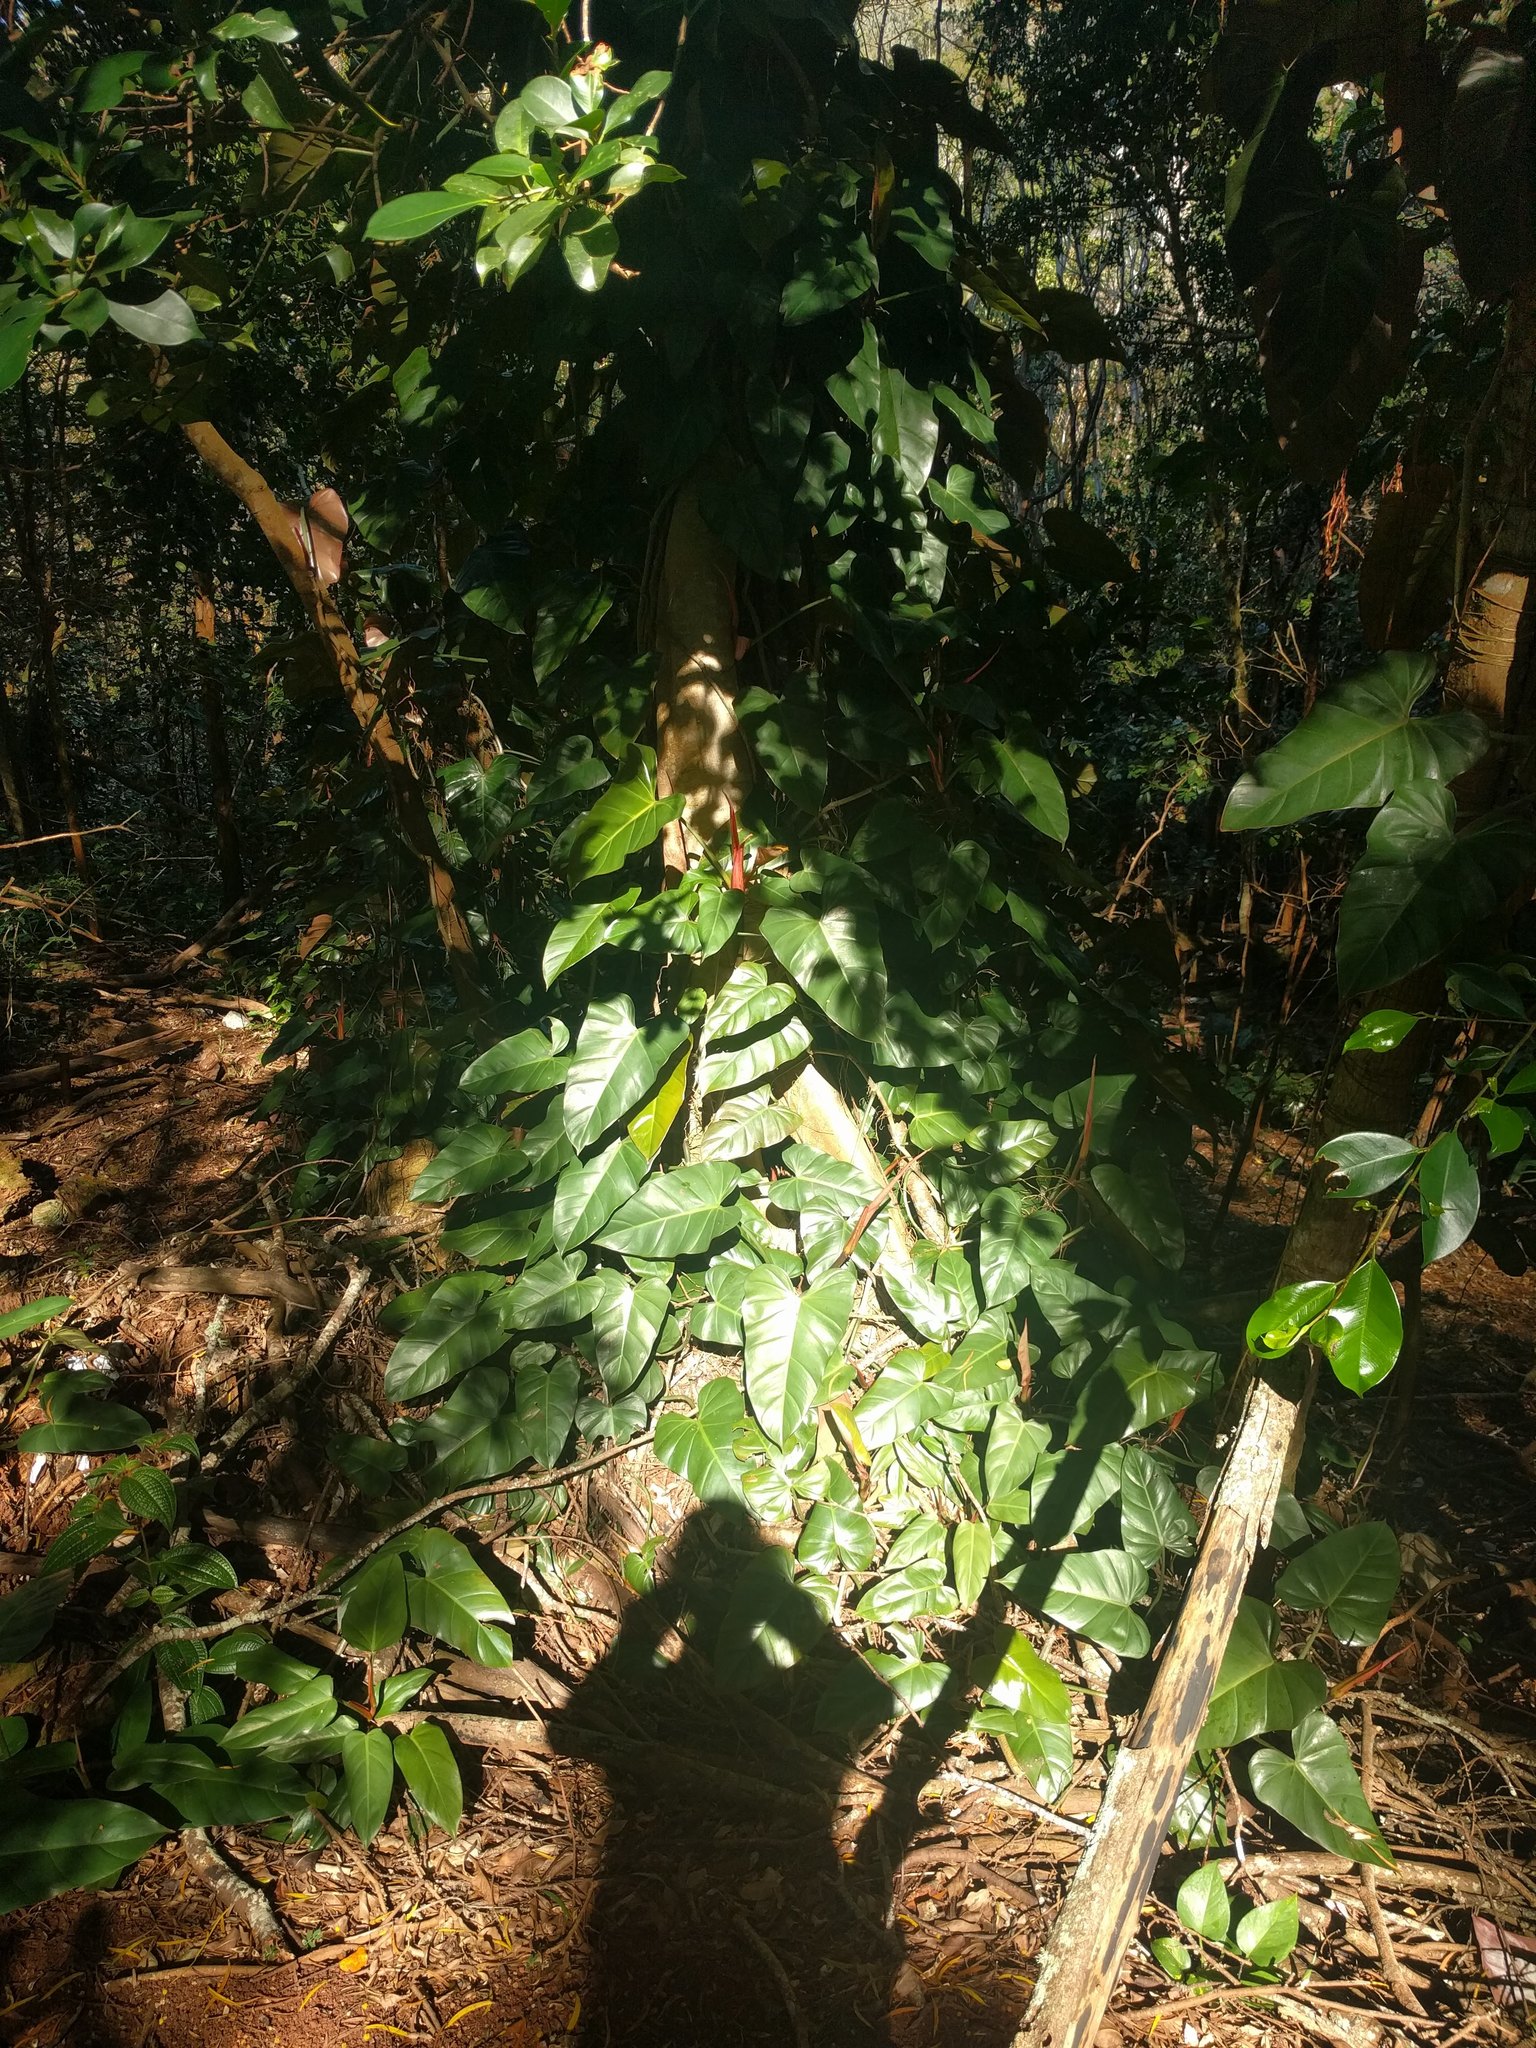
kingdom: Plantae
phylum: Tracheophyta
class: Liliopsida
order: Alismatales
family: Araceae
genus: Philodendron
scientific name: Philodendron erubescens
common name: Philodendron
